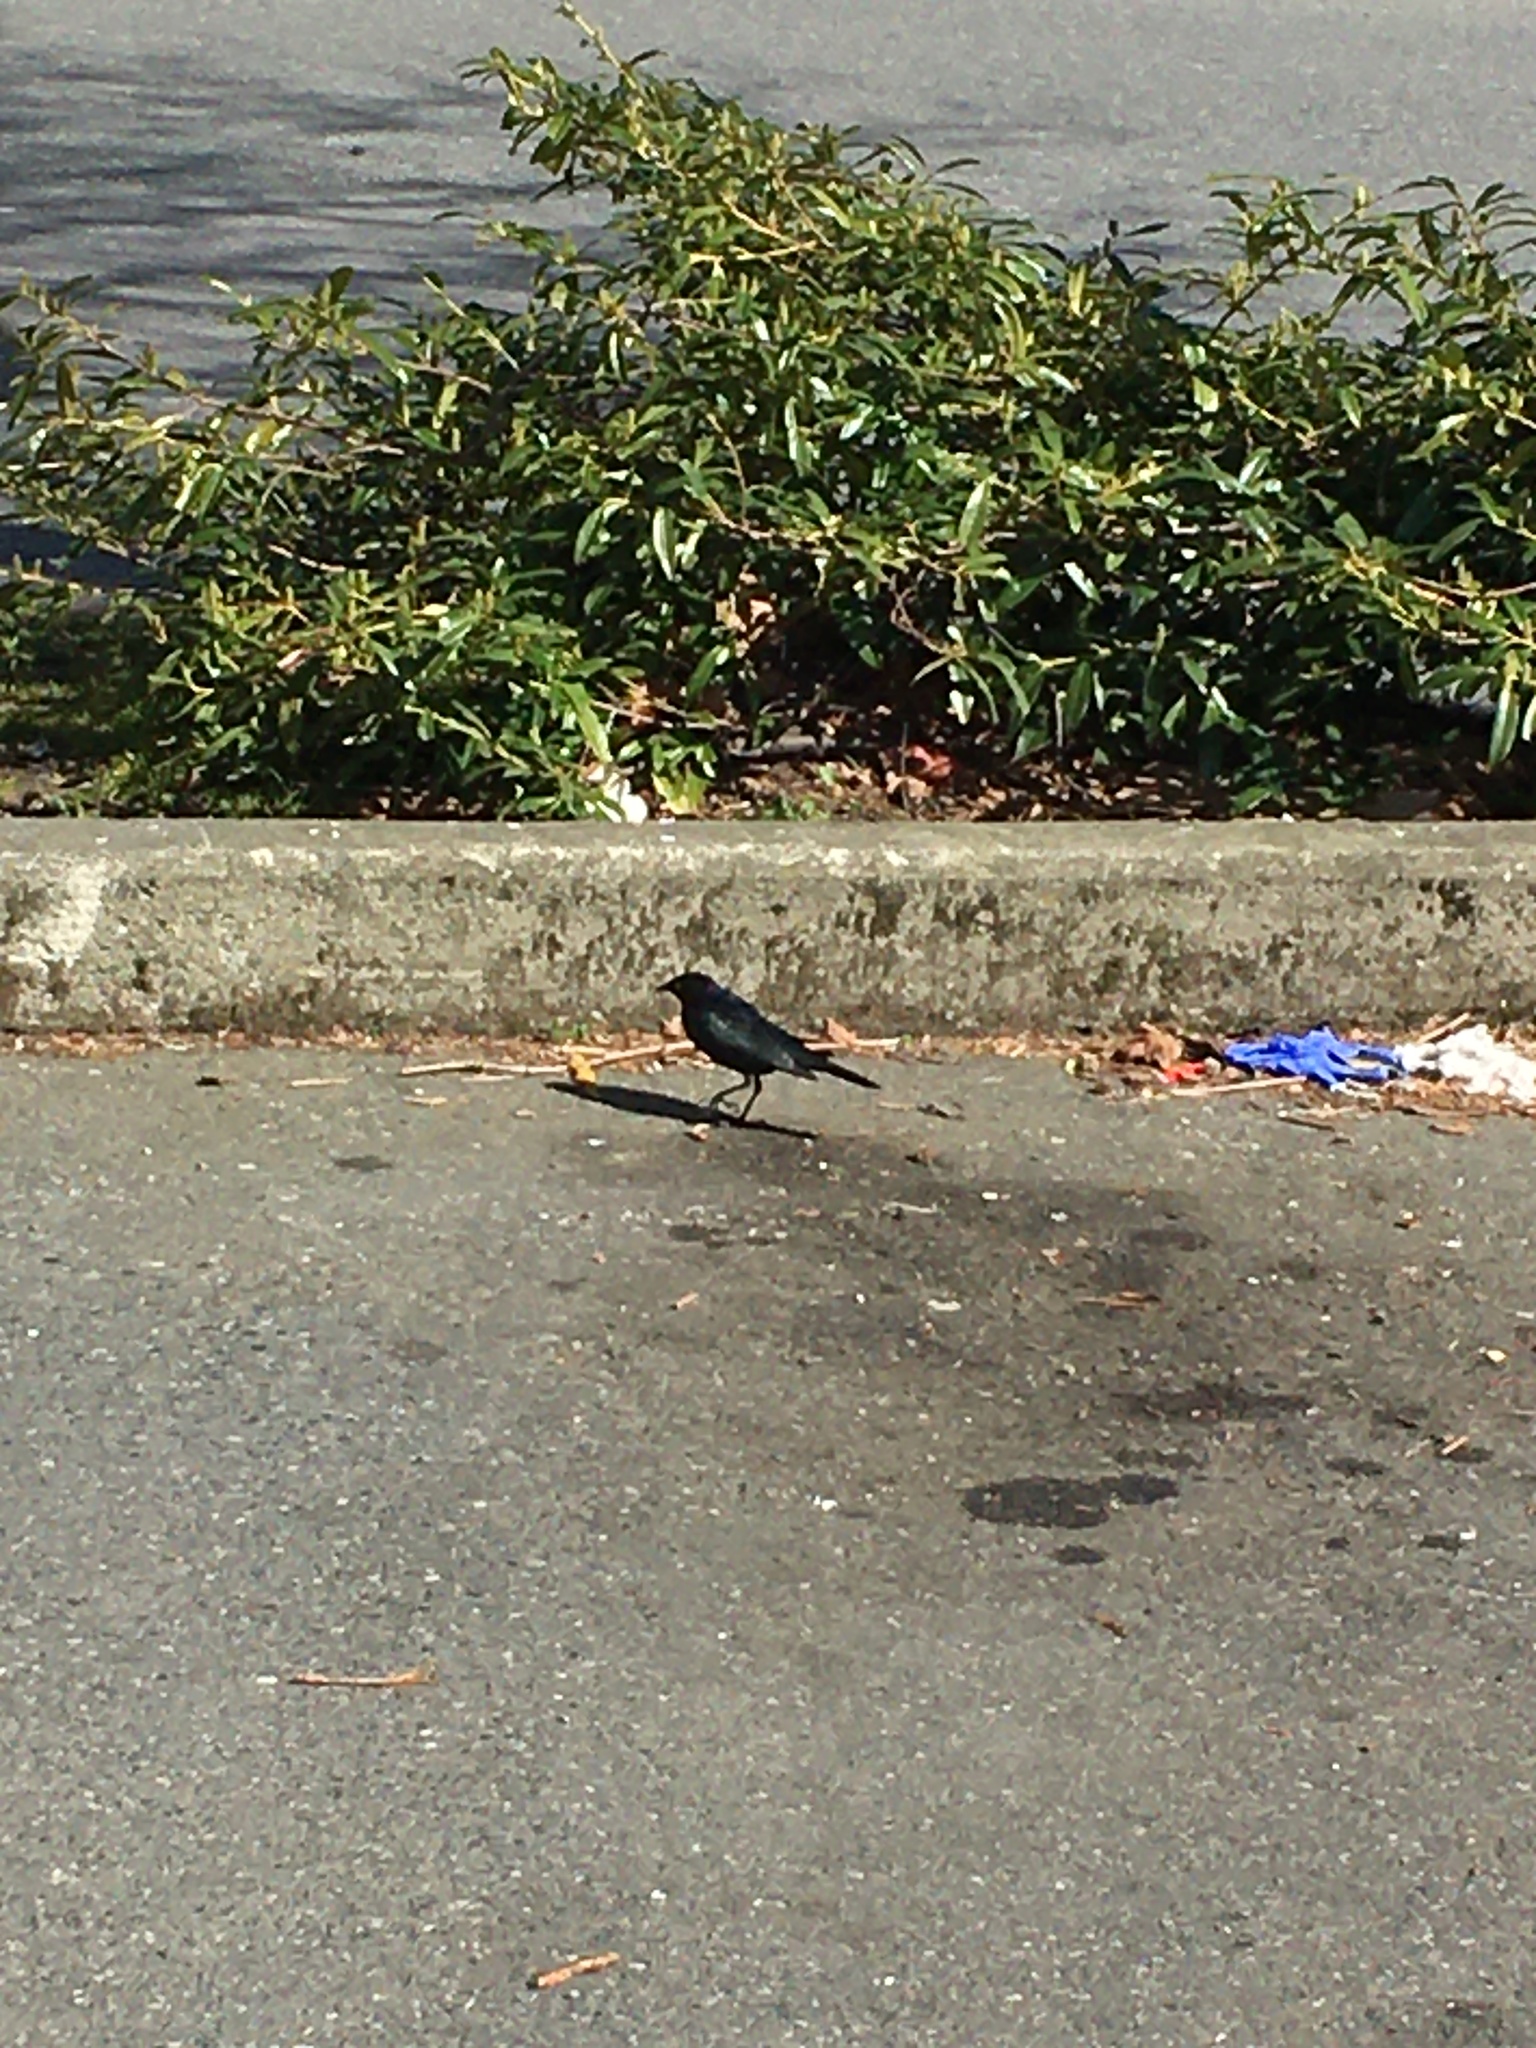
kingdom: Animalia
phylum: Chordata
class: Aves
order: Passeriformes
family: Icteridae
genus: Euphagus
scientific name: Euphagus cyanocephalus
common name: Brewer's blackbird
